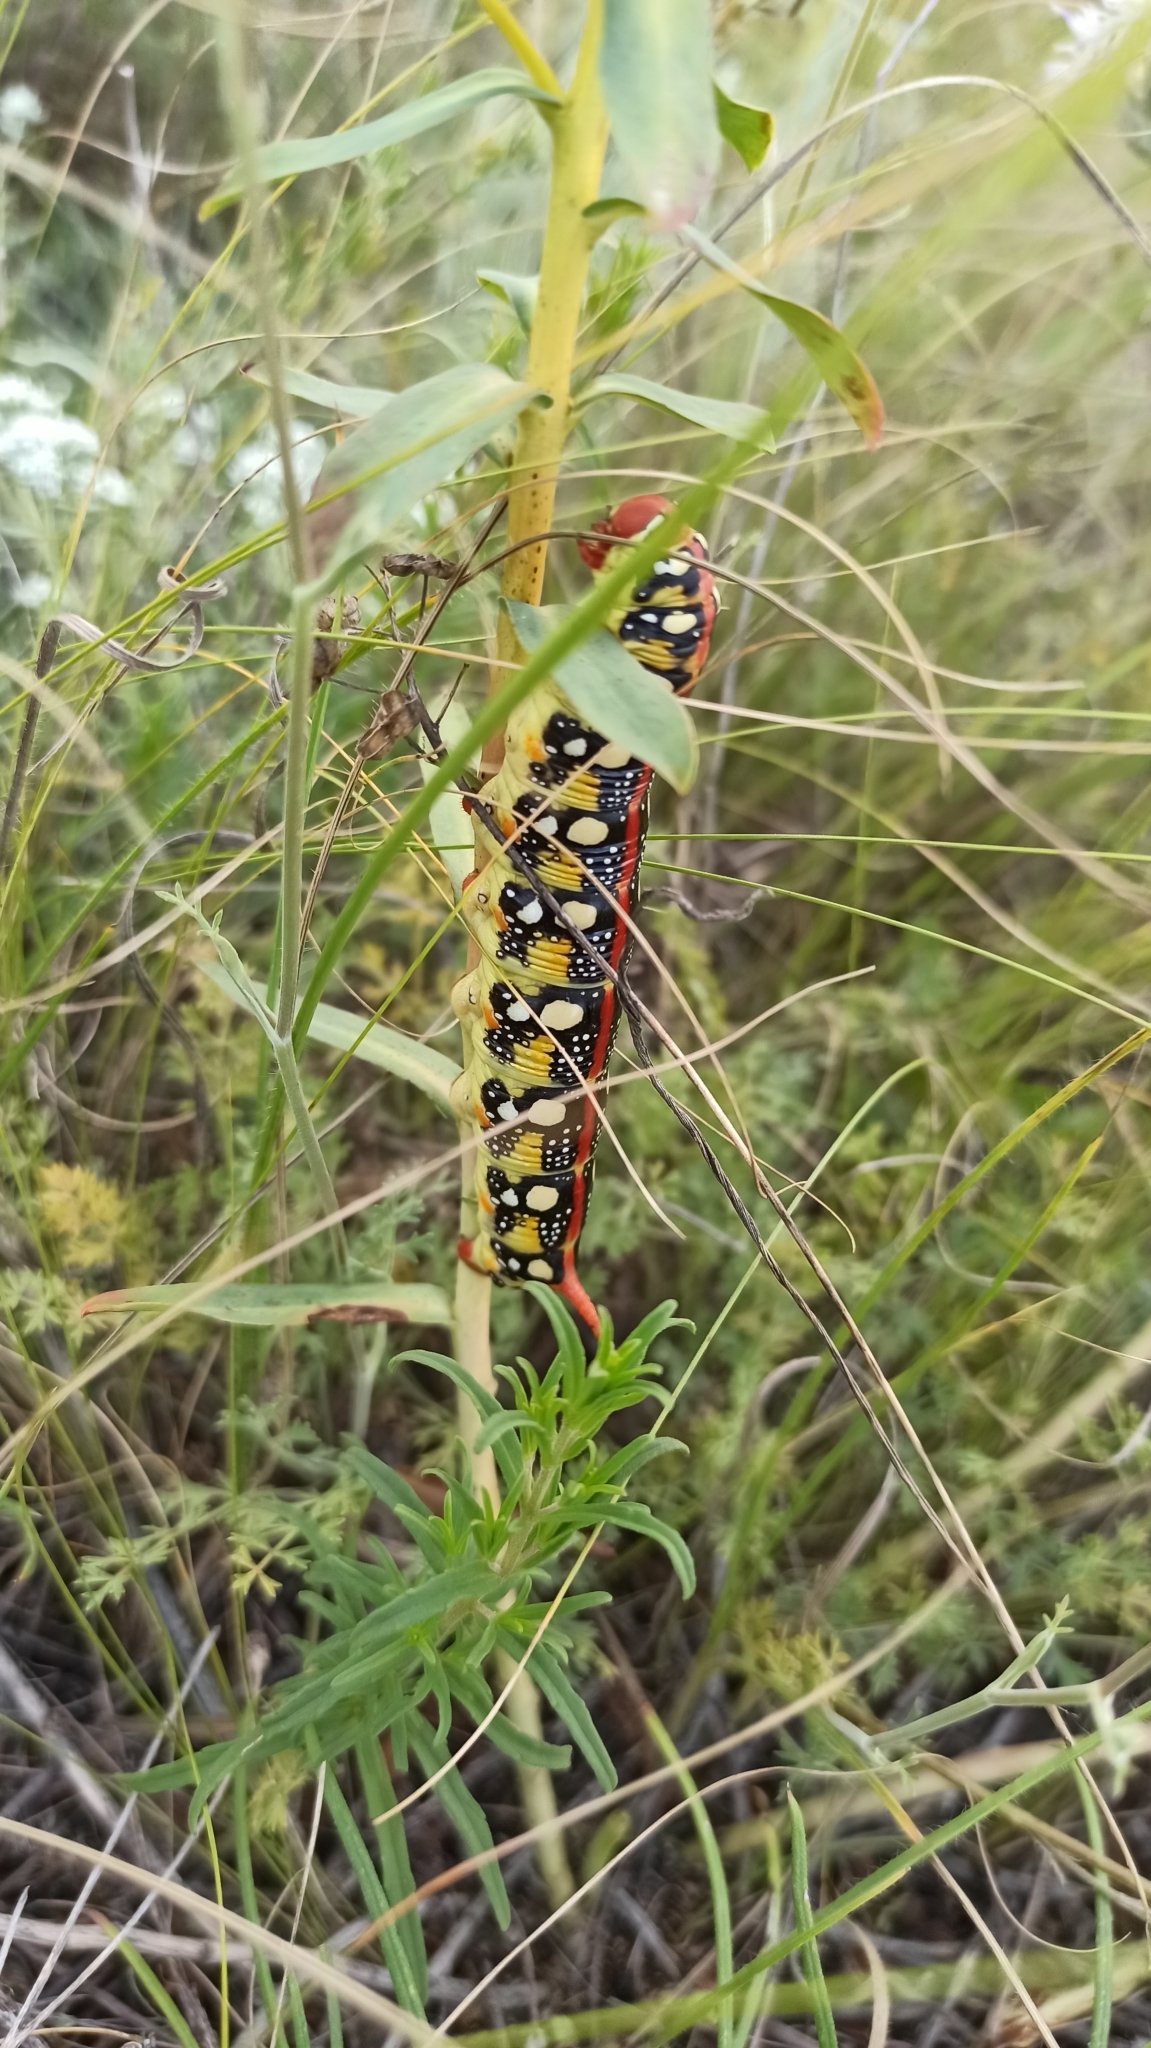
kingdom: Animalia
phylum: Arthropoda
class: Insecta
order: Lepidoptera
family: Sphingidae
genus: Hyles
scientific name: Hyles euphorbiae
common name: Spurge hawk-moth
